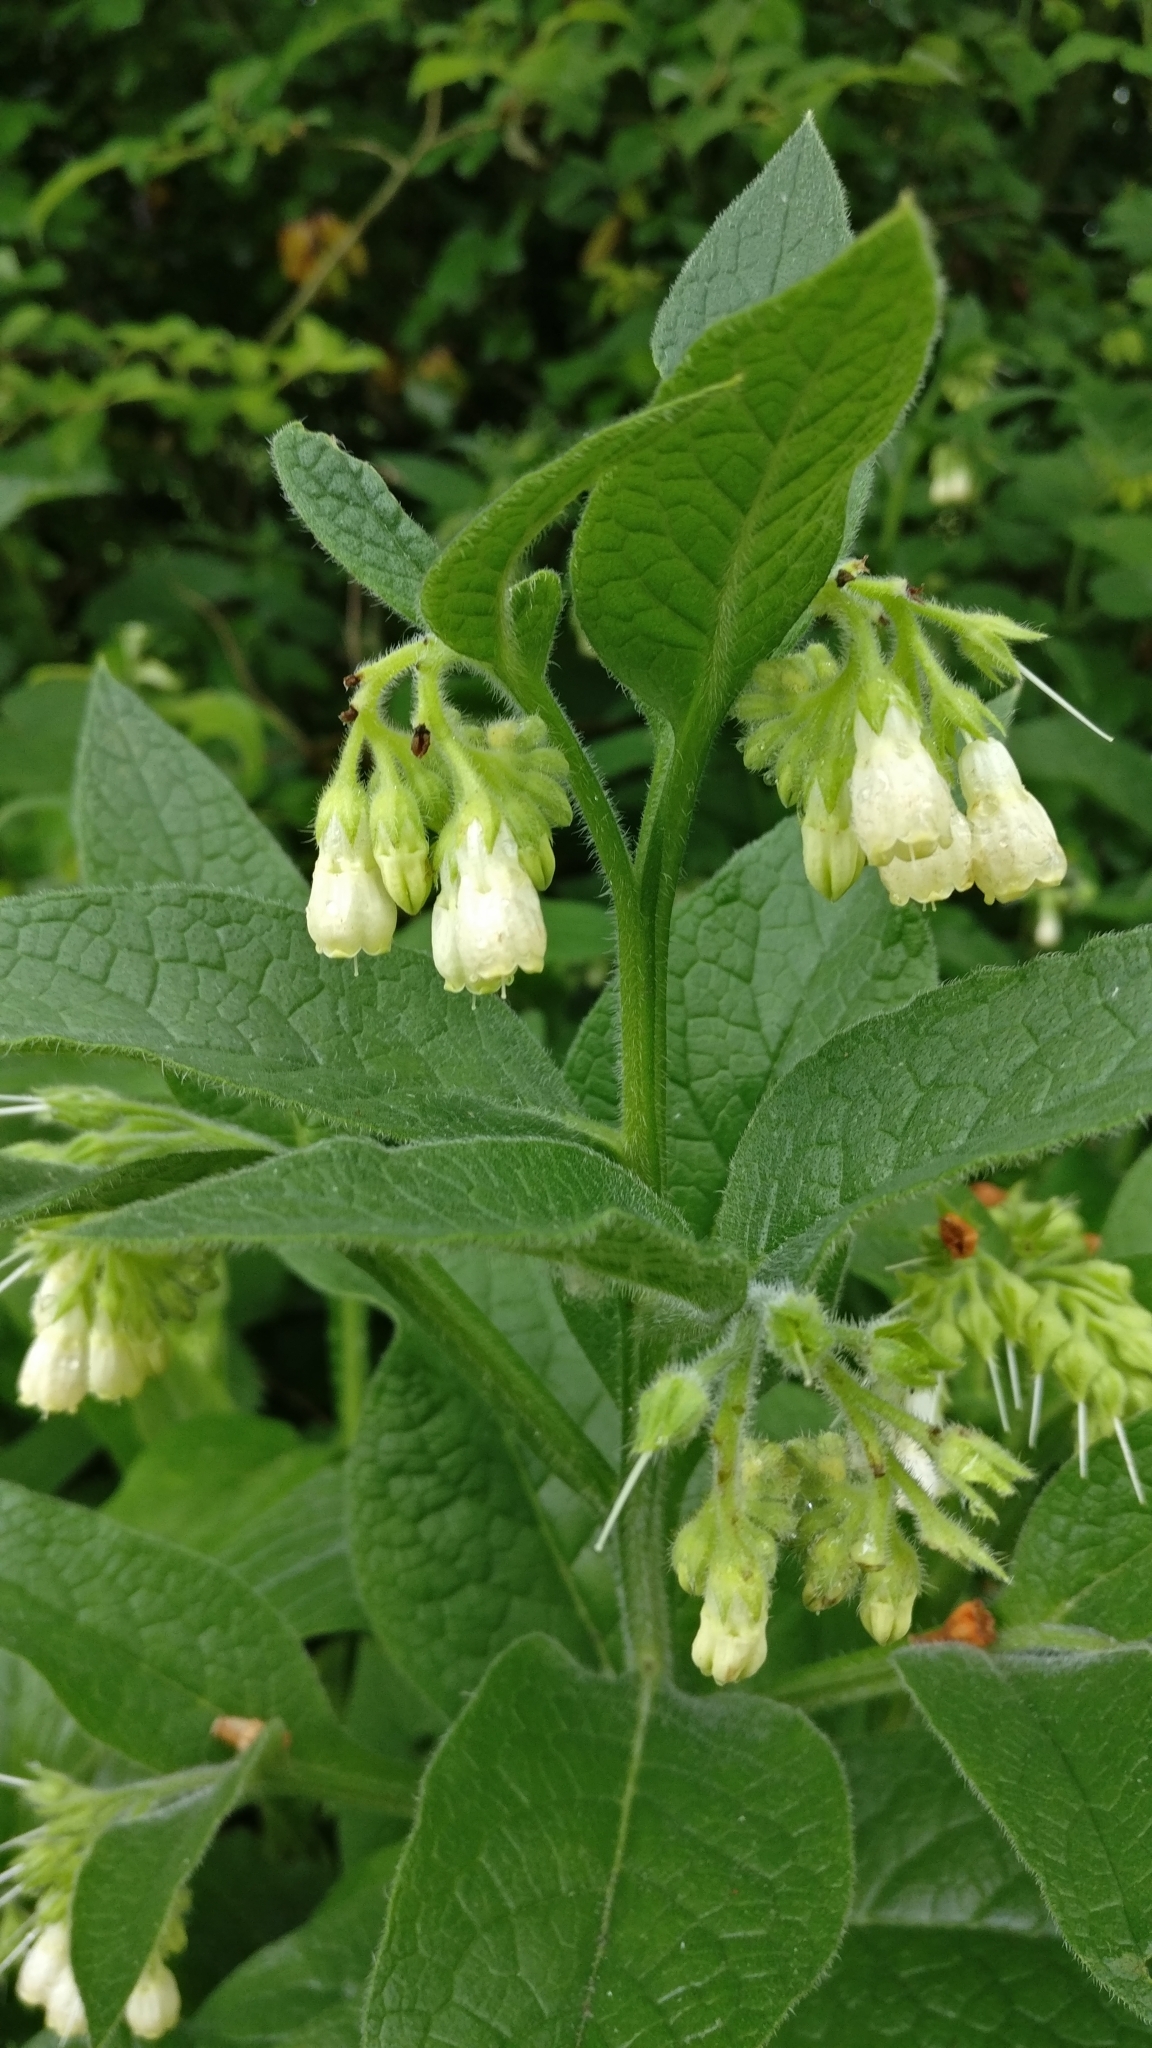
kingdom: Plantae
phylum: Tracheophyta
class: Magnoliopsida
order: Boraginales
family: Boraginaceae
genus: Symphytum
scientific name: Symphytum officinale
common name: Common comfrey
